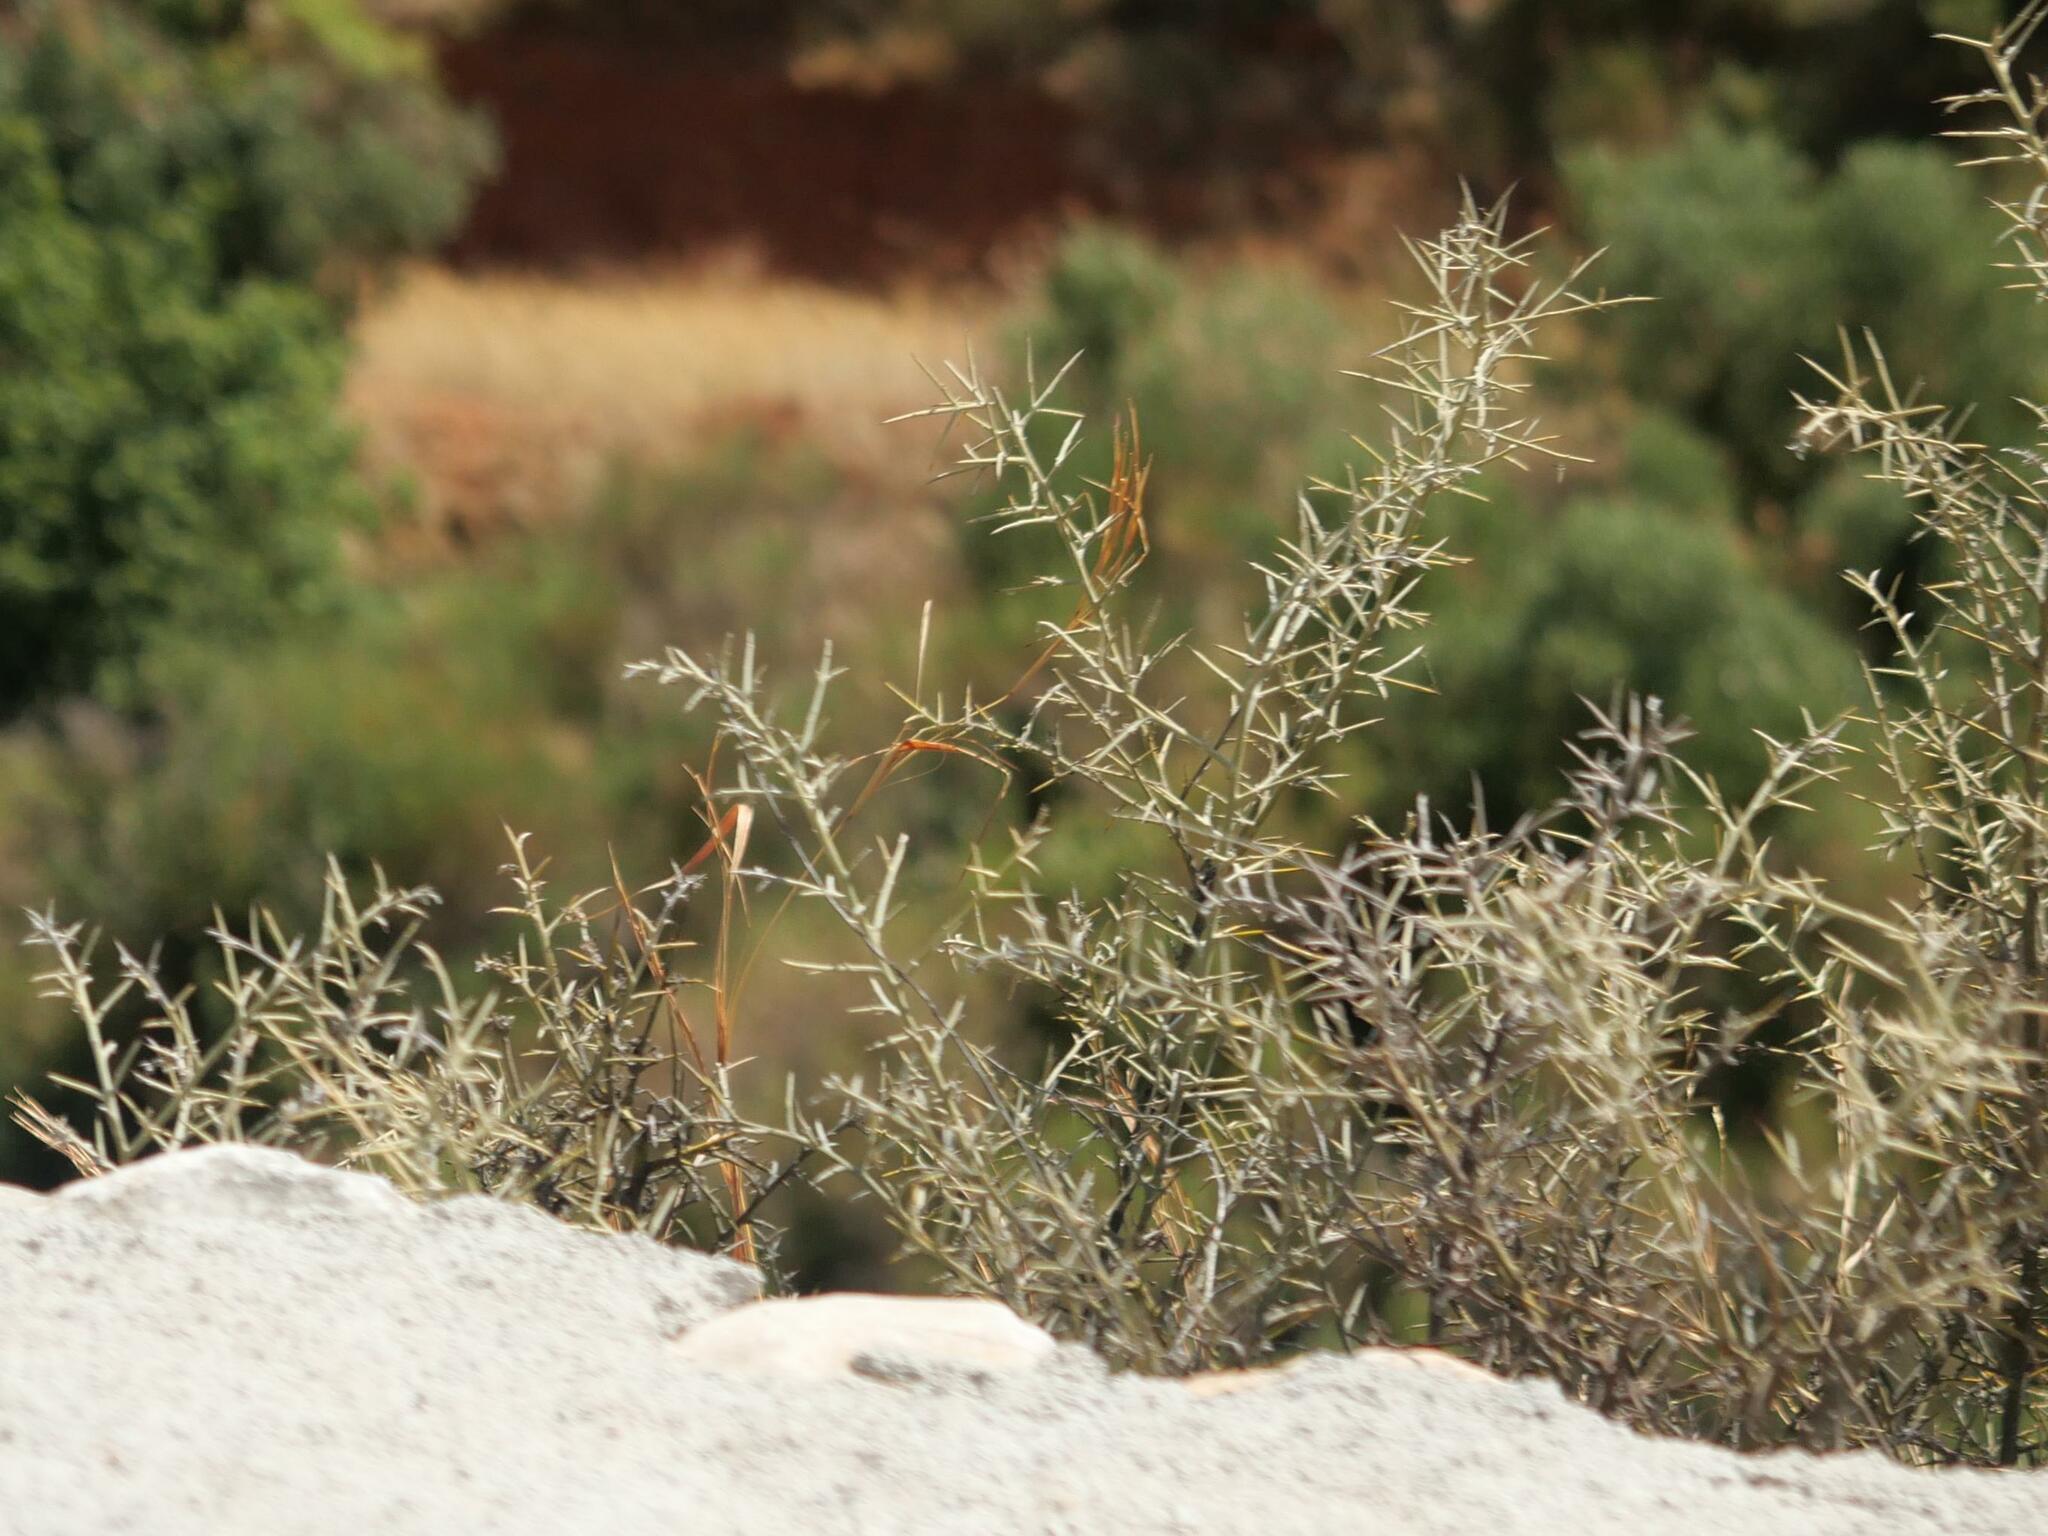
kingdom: Plantae
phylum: Tracheophyta
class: Magnoliopsida
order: Fabales
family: Fabaceae
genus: Calicotome
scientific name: Calicotome villosa
